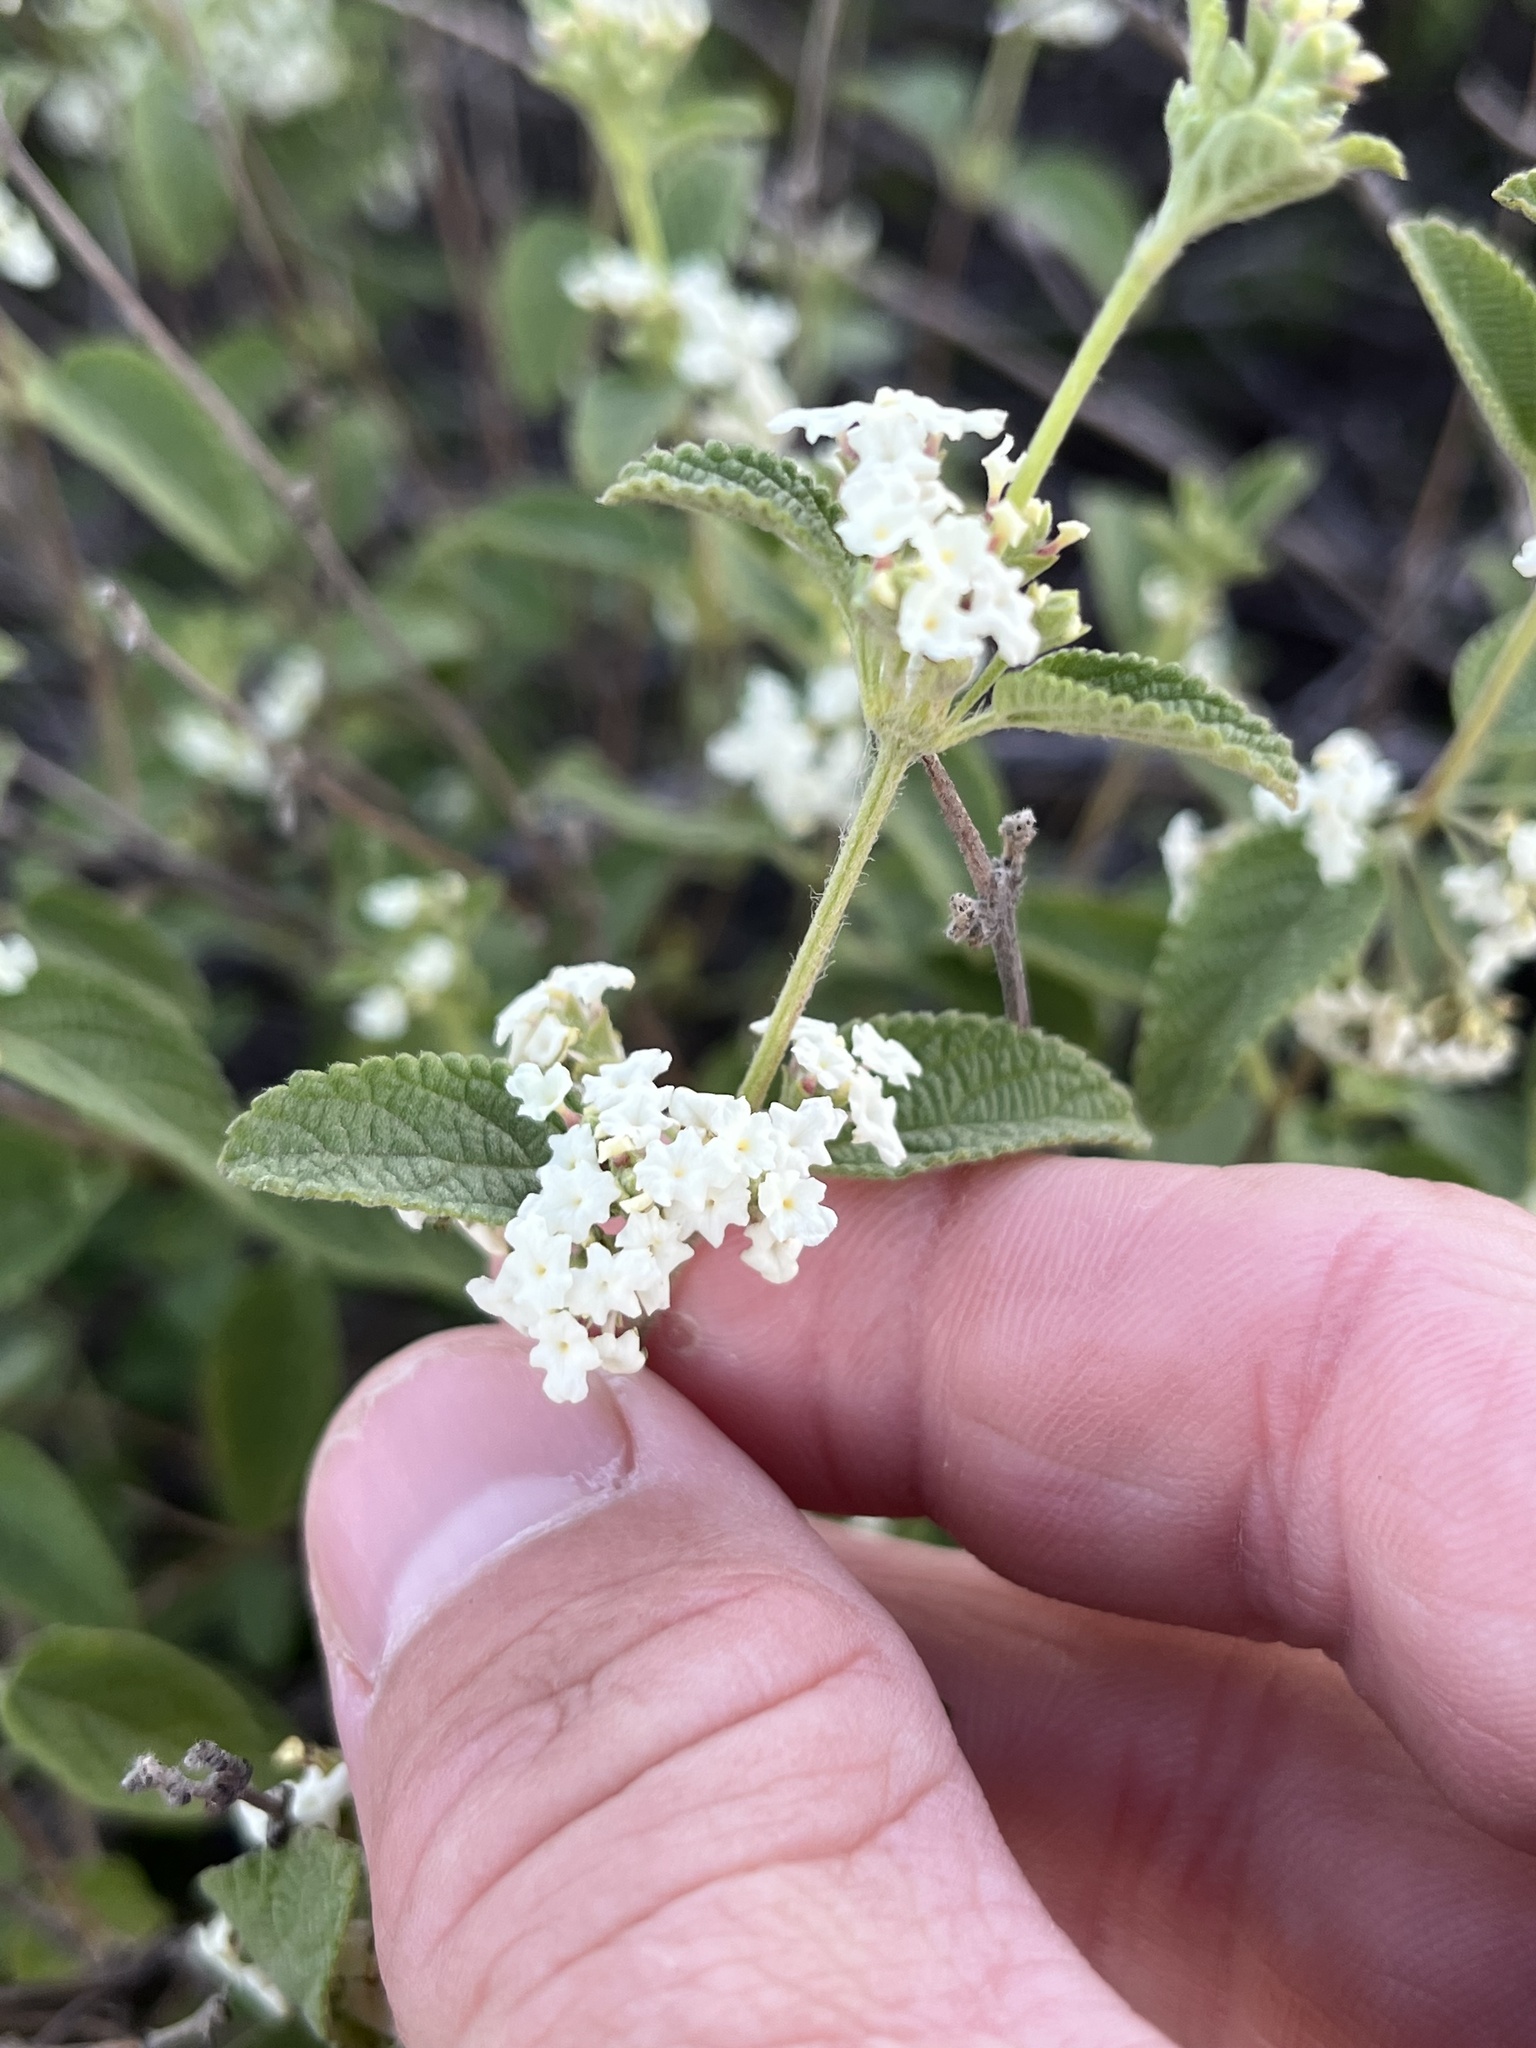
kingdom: Plantae
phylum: Tracheophyta
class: Magnoliopsida
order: Lamiales
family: Verbenaceae
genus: Lippia
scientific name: Lippia origanoides
